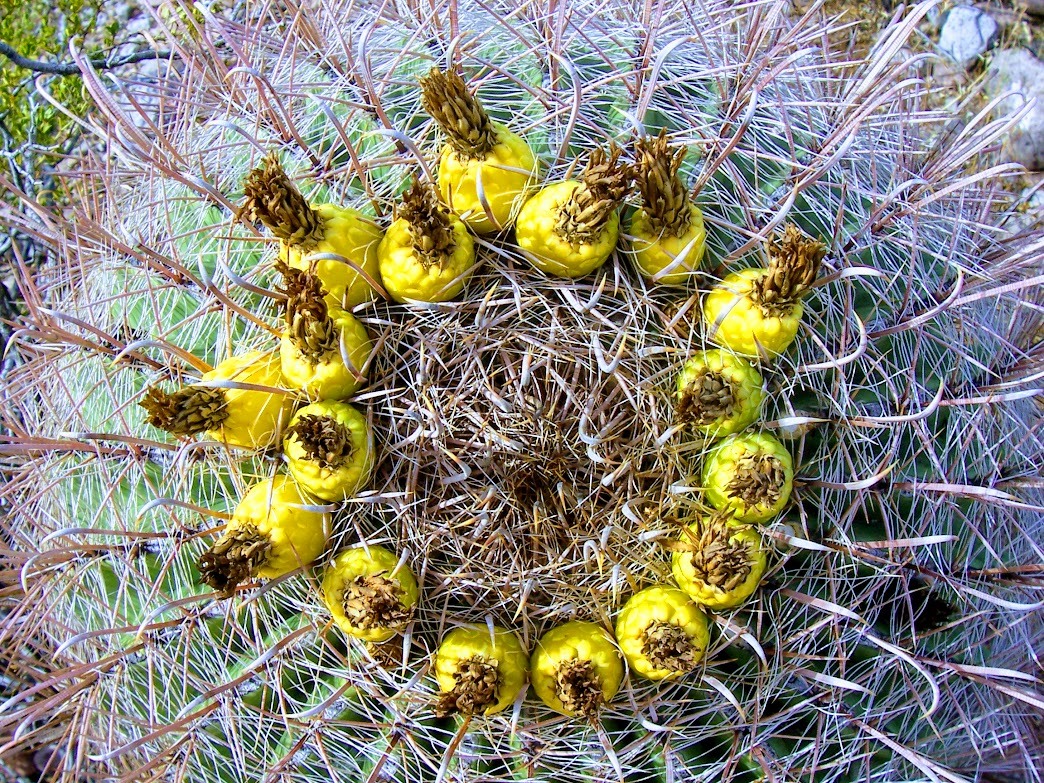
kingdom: Plantae
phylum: Tracheophyta
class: Magnoliopsida
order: Caryophyllales
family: Cactaceae
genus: Ferocactus
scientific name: Ferocactus wislizeni
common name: Candy barrel cactus
